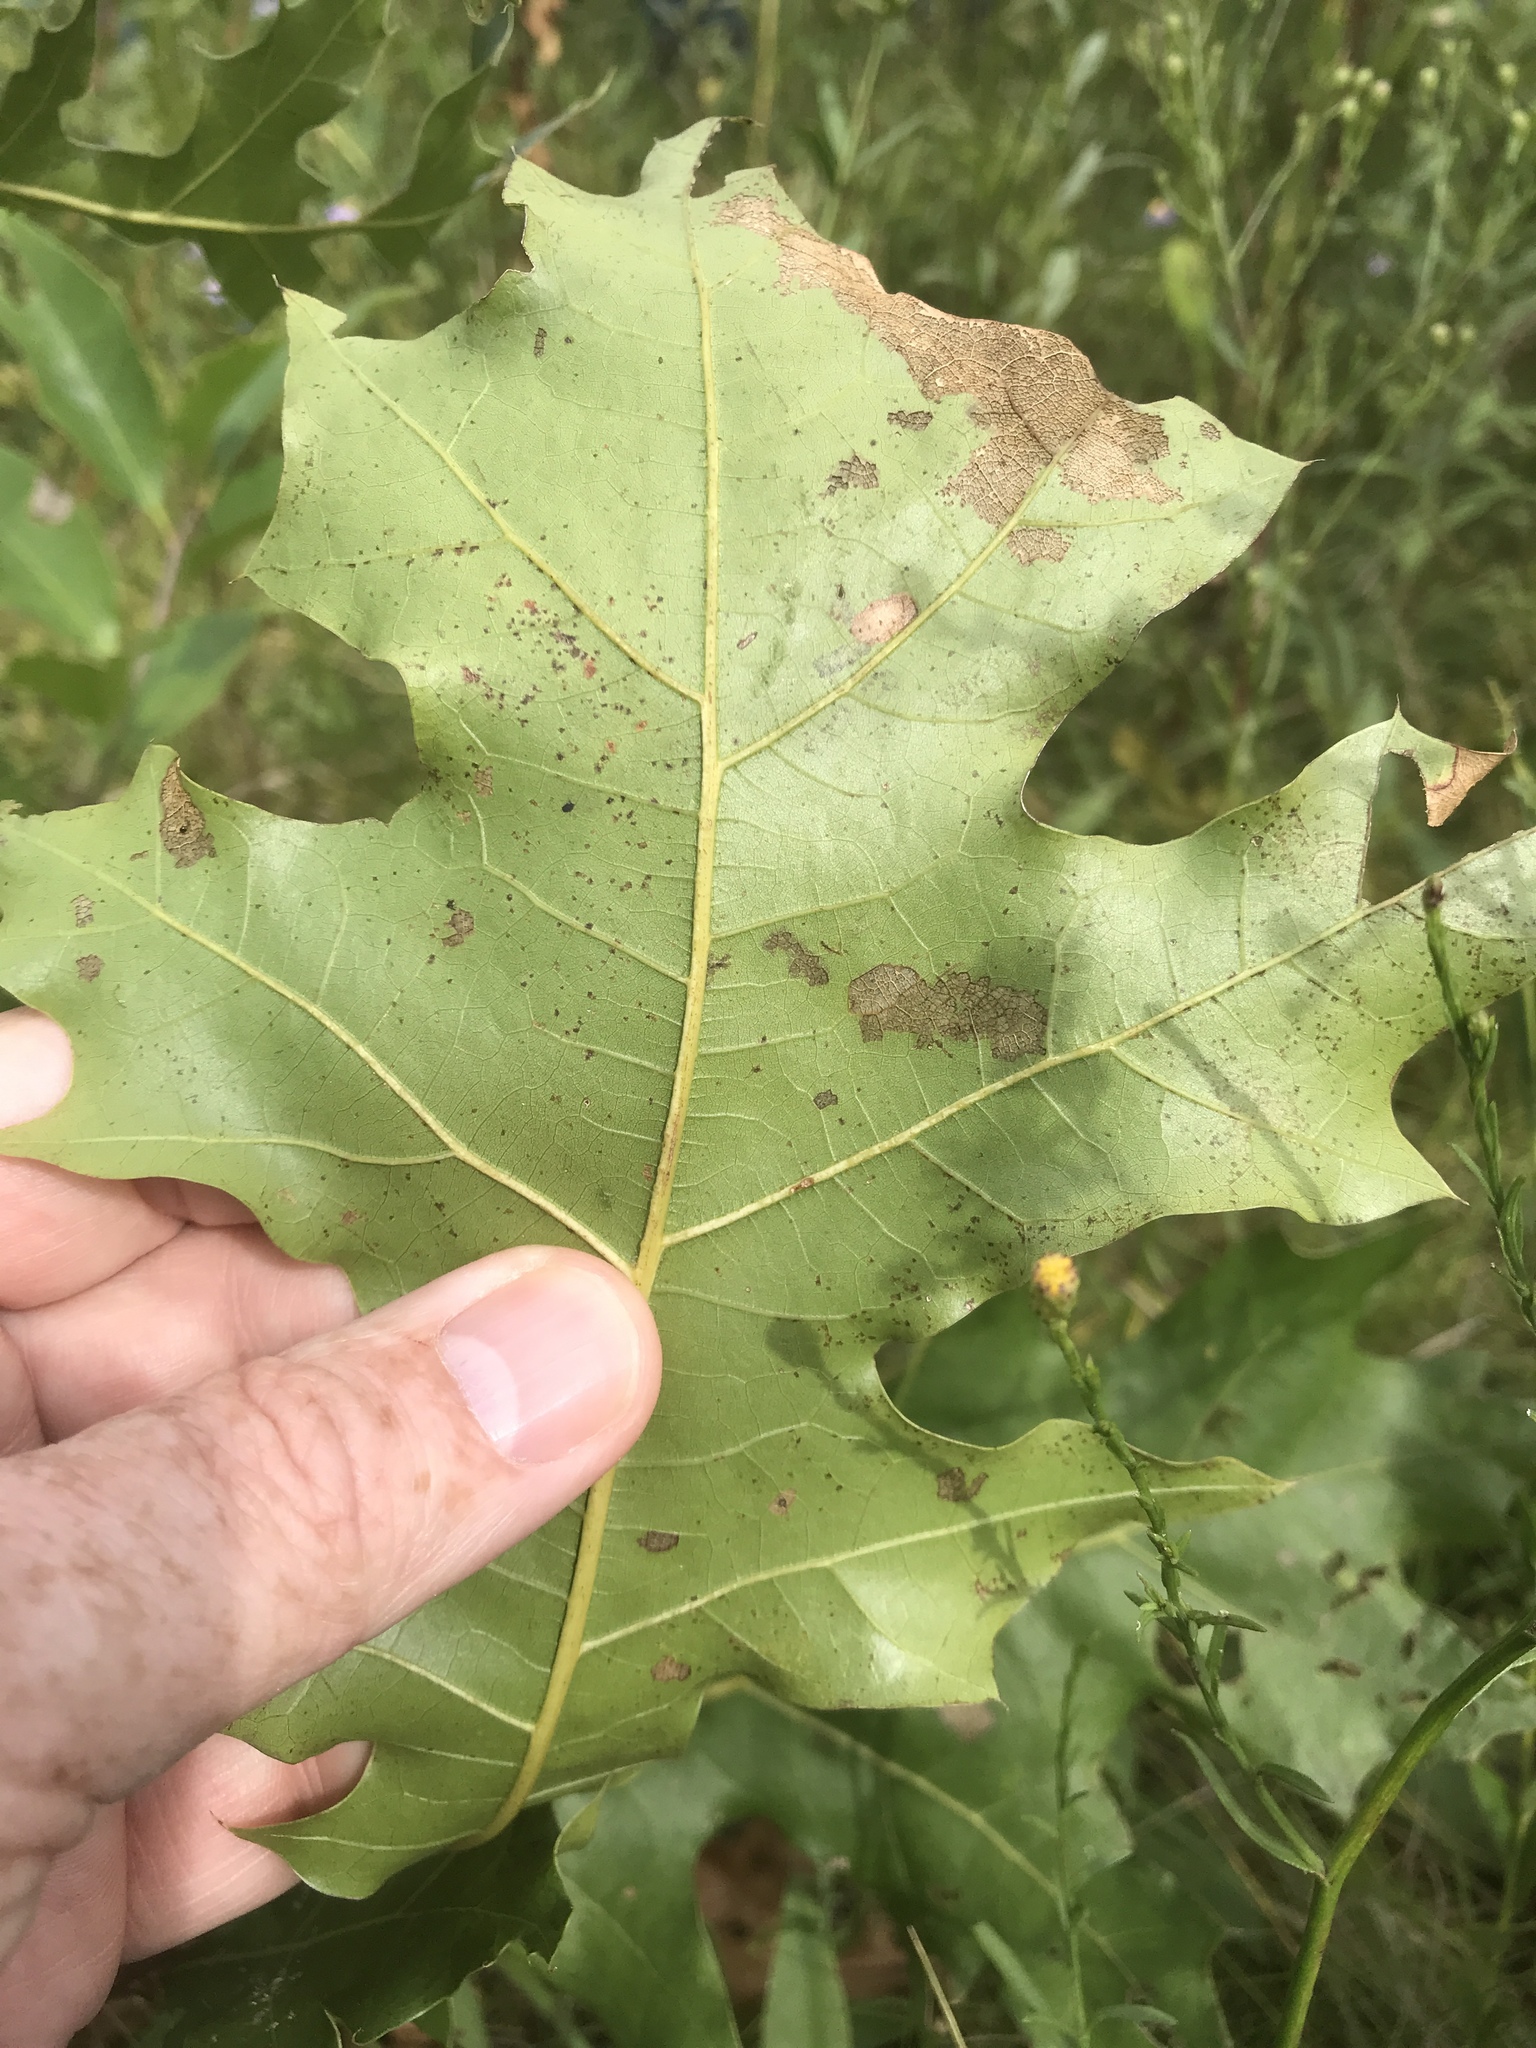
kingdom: Plantae
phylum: Tracheophyta
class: Magnoliopsida
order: Fagales
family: Fagaceae
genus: Quercus
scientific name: Quercus velutina
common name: Black oak
